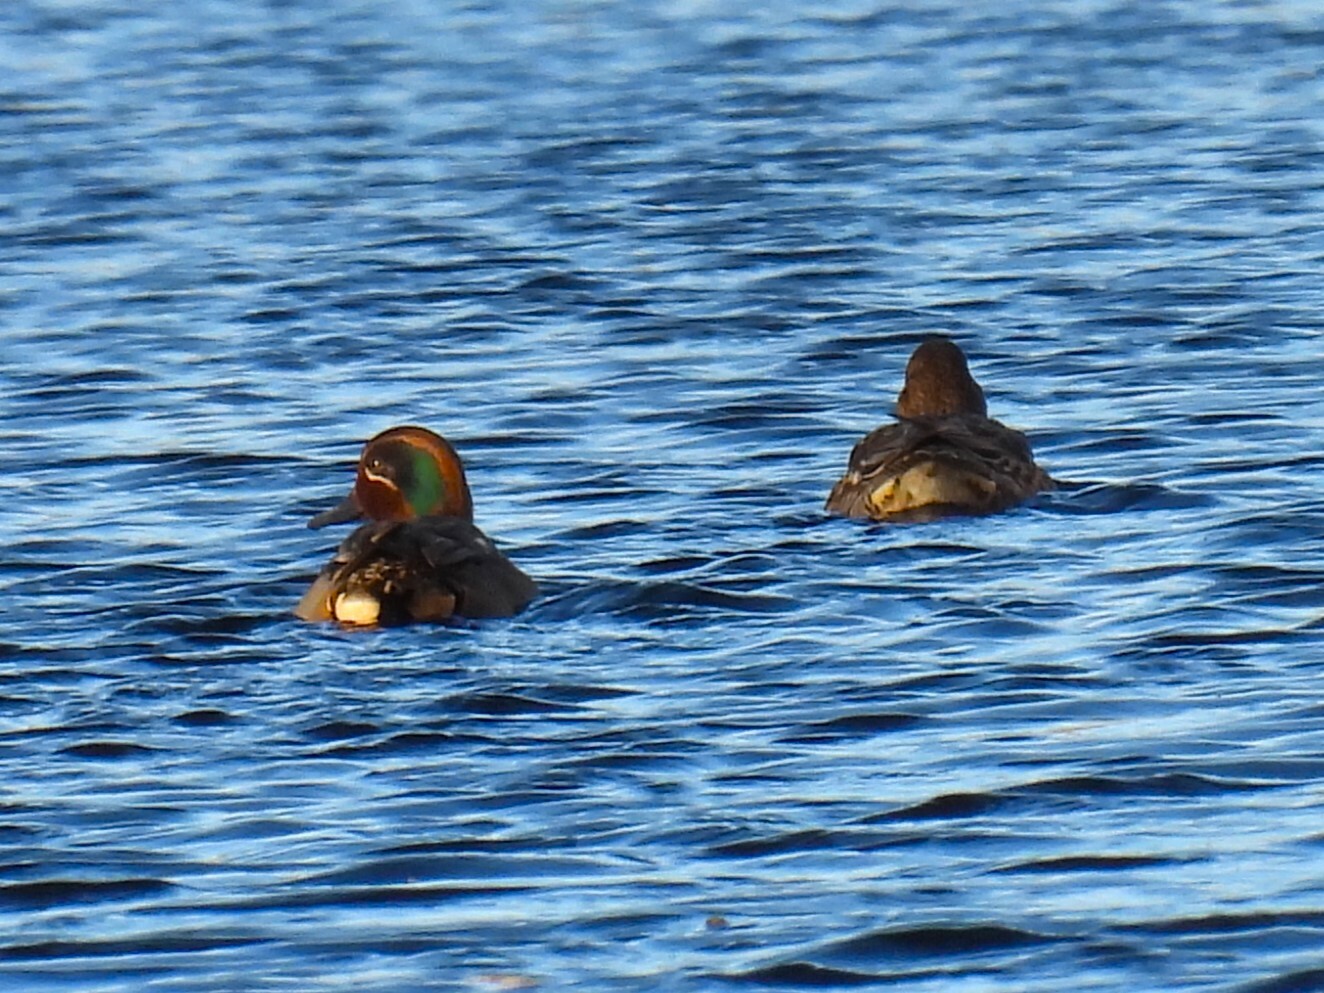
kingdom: Animalia
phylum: Chordata
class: Aves
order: Anseriformes
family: Anatidae
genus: Anas
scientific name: Anas crecca
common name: Eurasian teal
